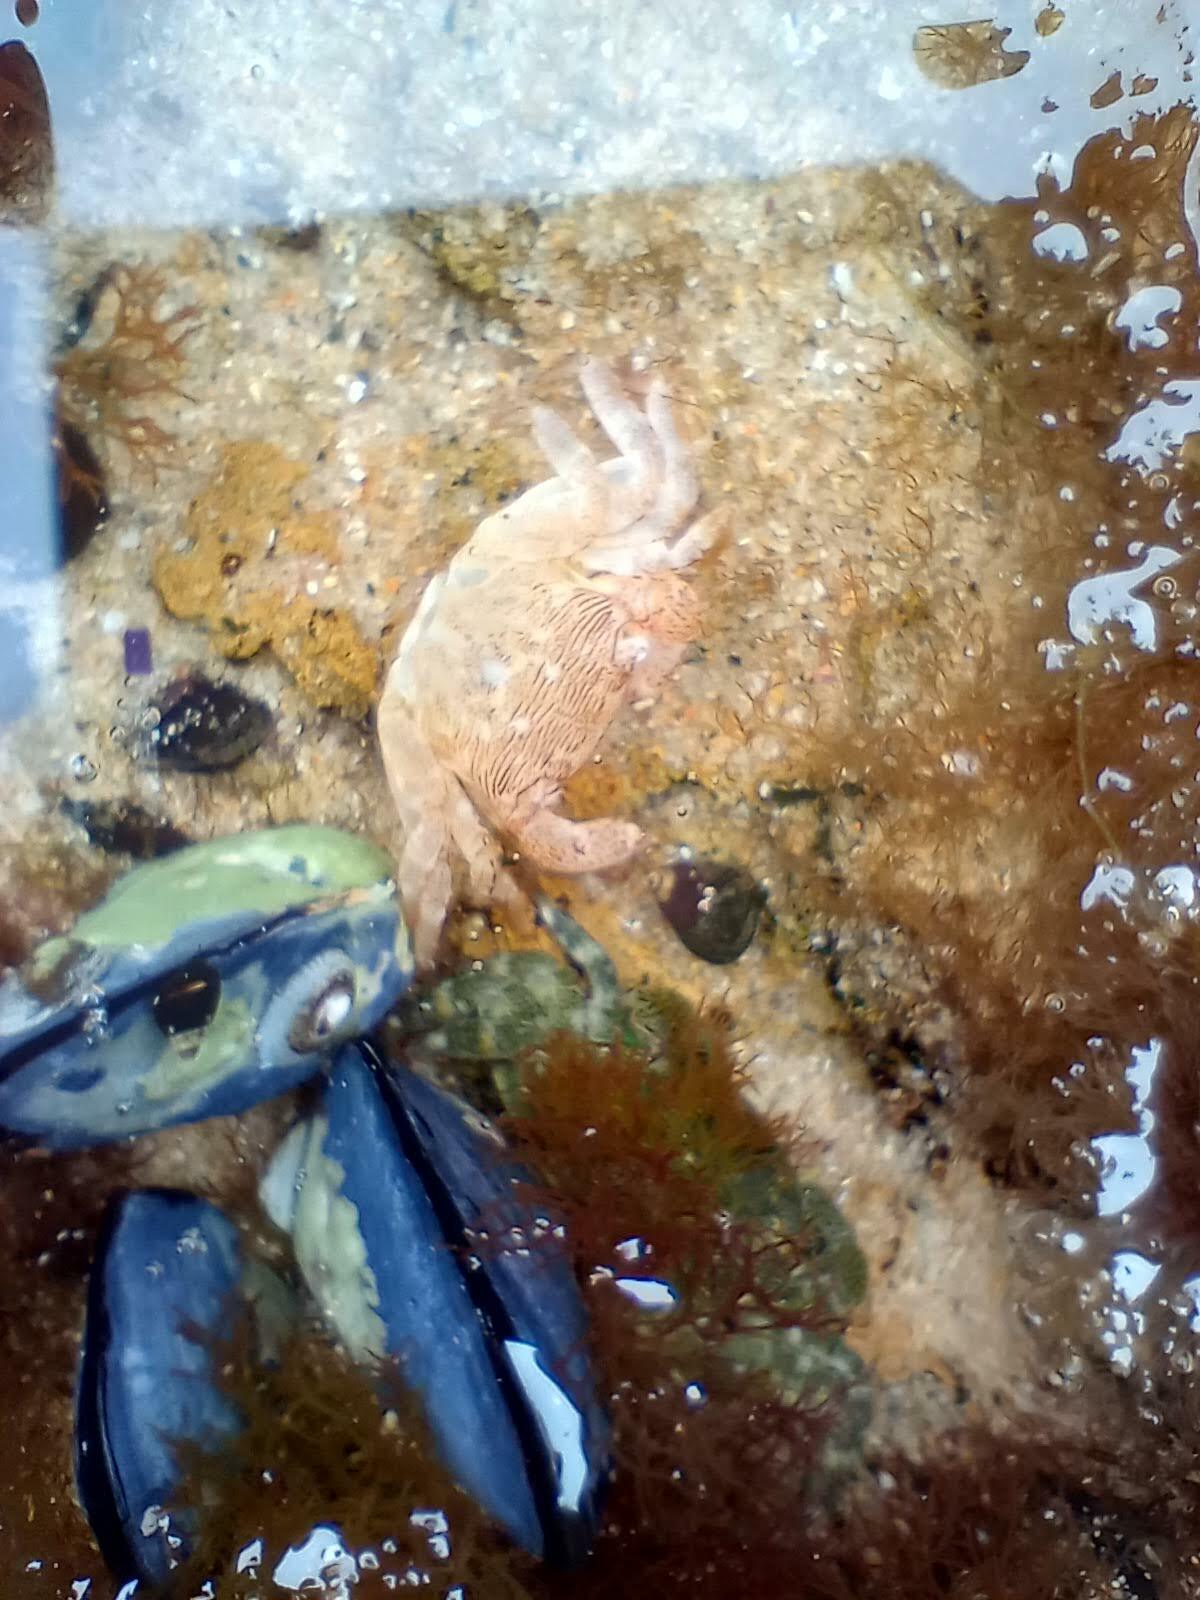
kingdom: Animalia
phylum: Arthropoda
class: Malacostraca
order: Decapoda
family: Grapsidae
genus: Pachygrapsus
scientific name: Pachygrapsus crassipes
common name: Striped shore crab
